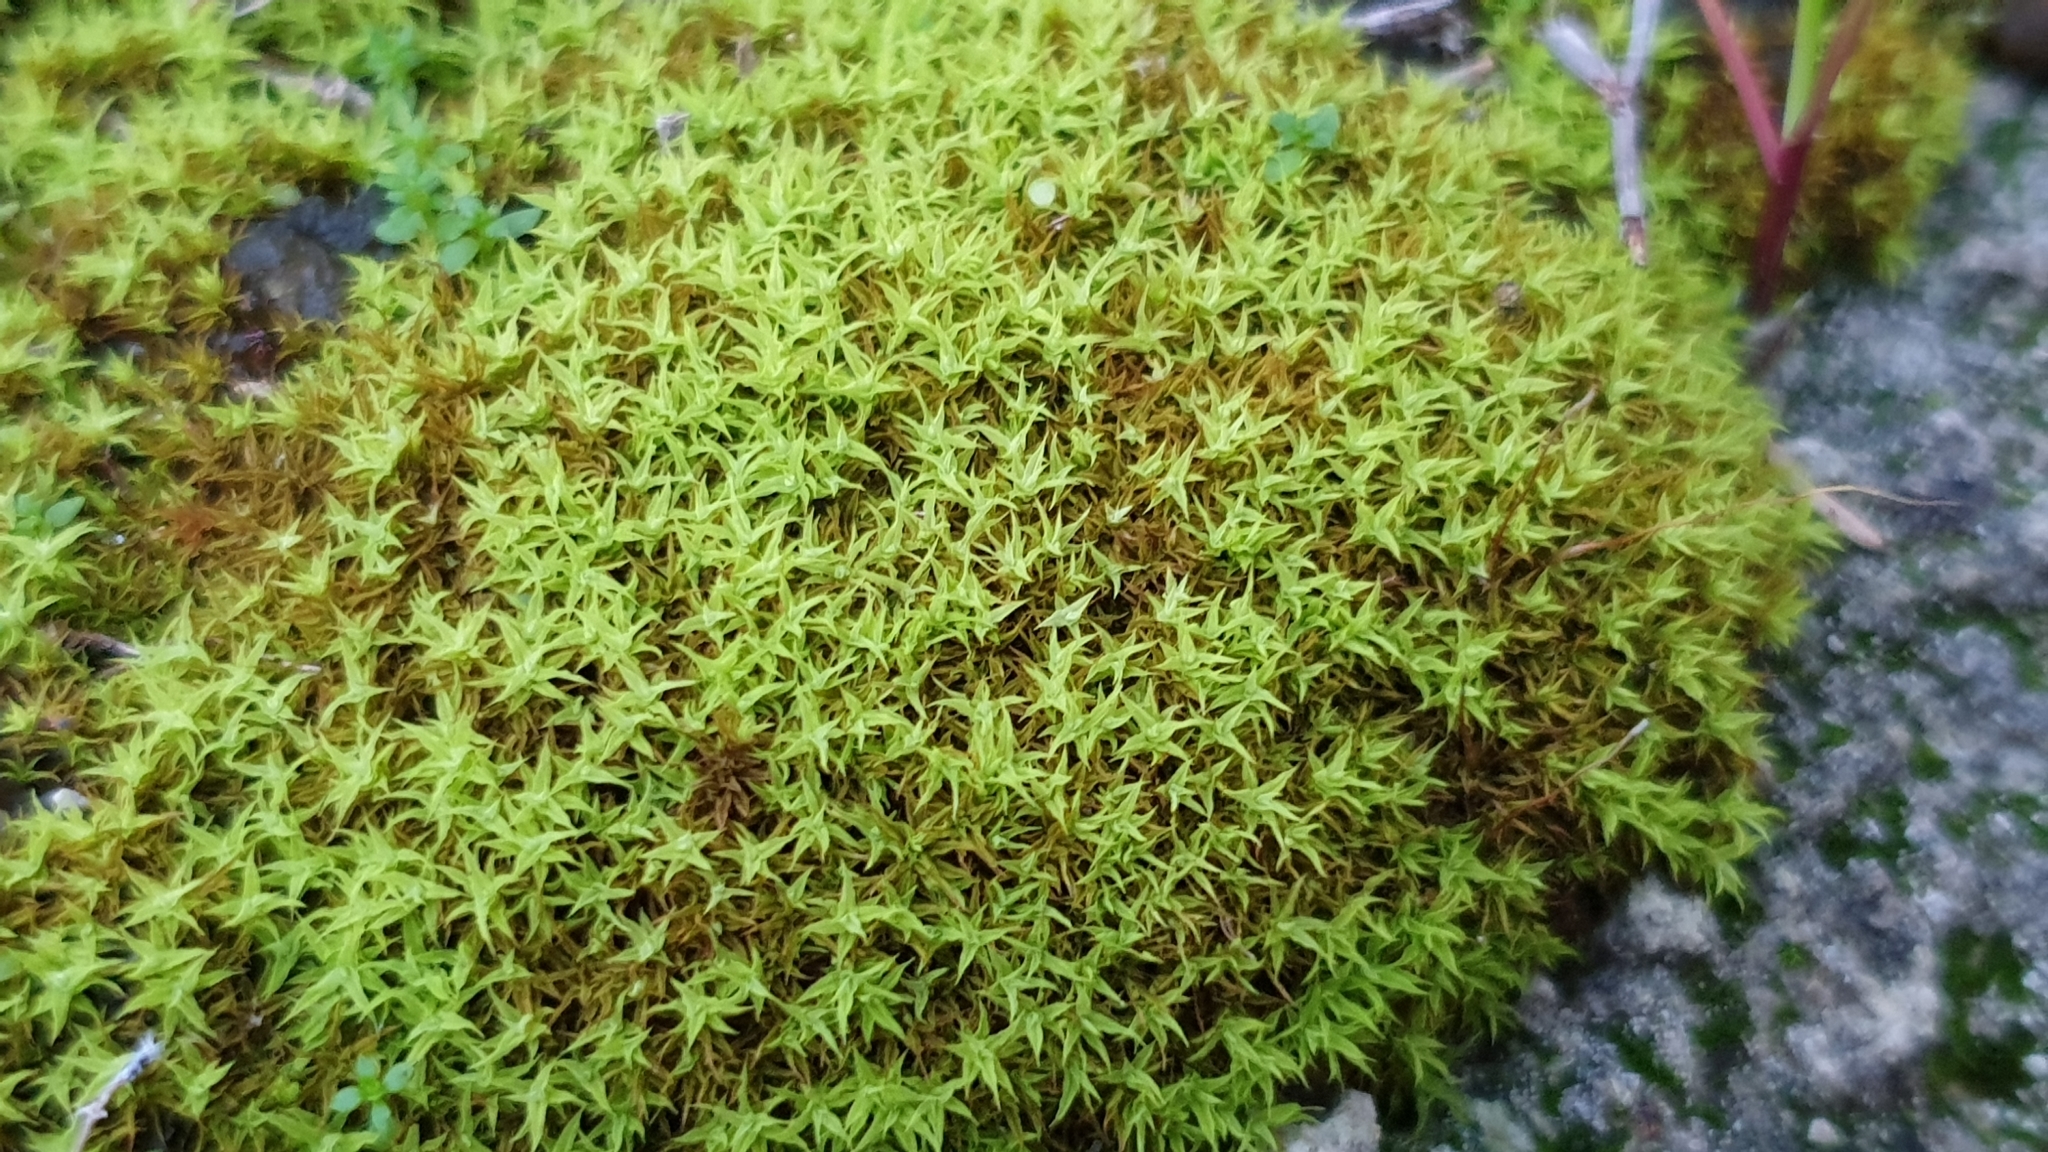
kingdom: Plantae
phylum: Bryophyta
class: Bryopsida
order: Pottiales
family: Pottiaceae
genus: Barbula
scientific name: Barbula calycina
